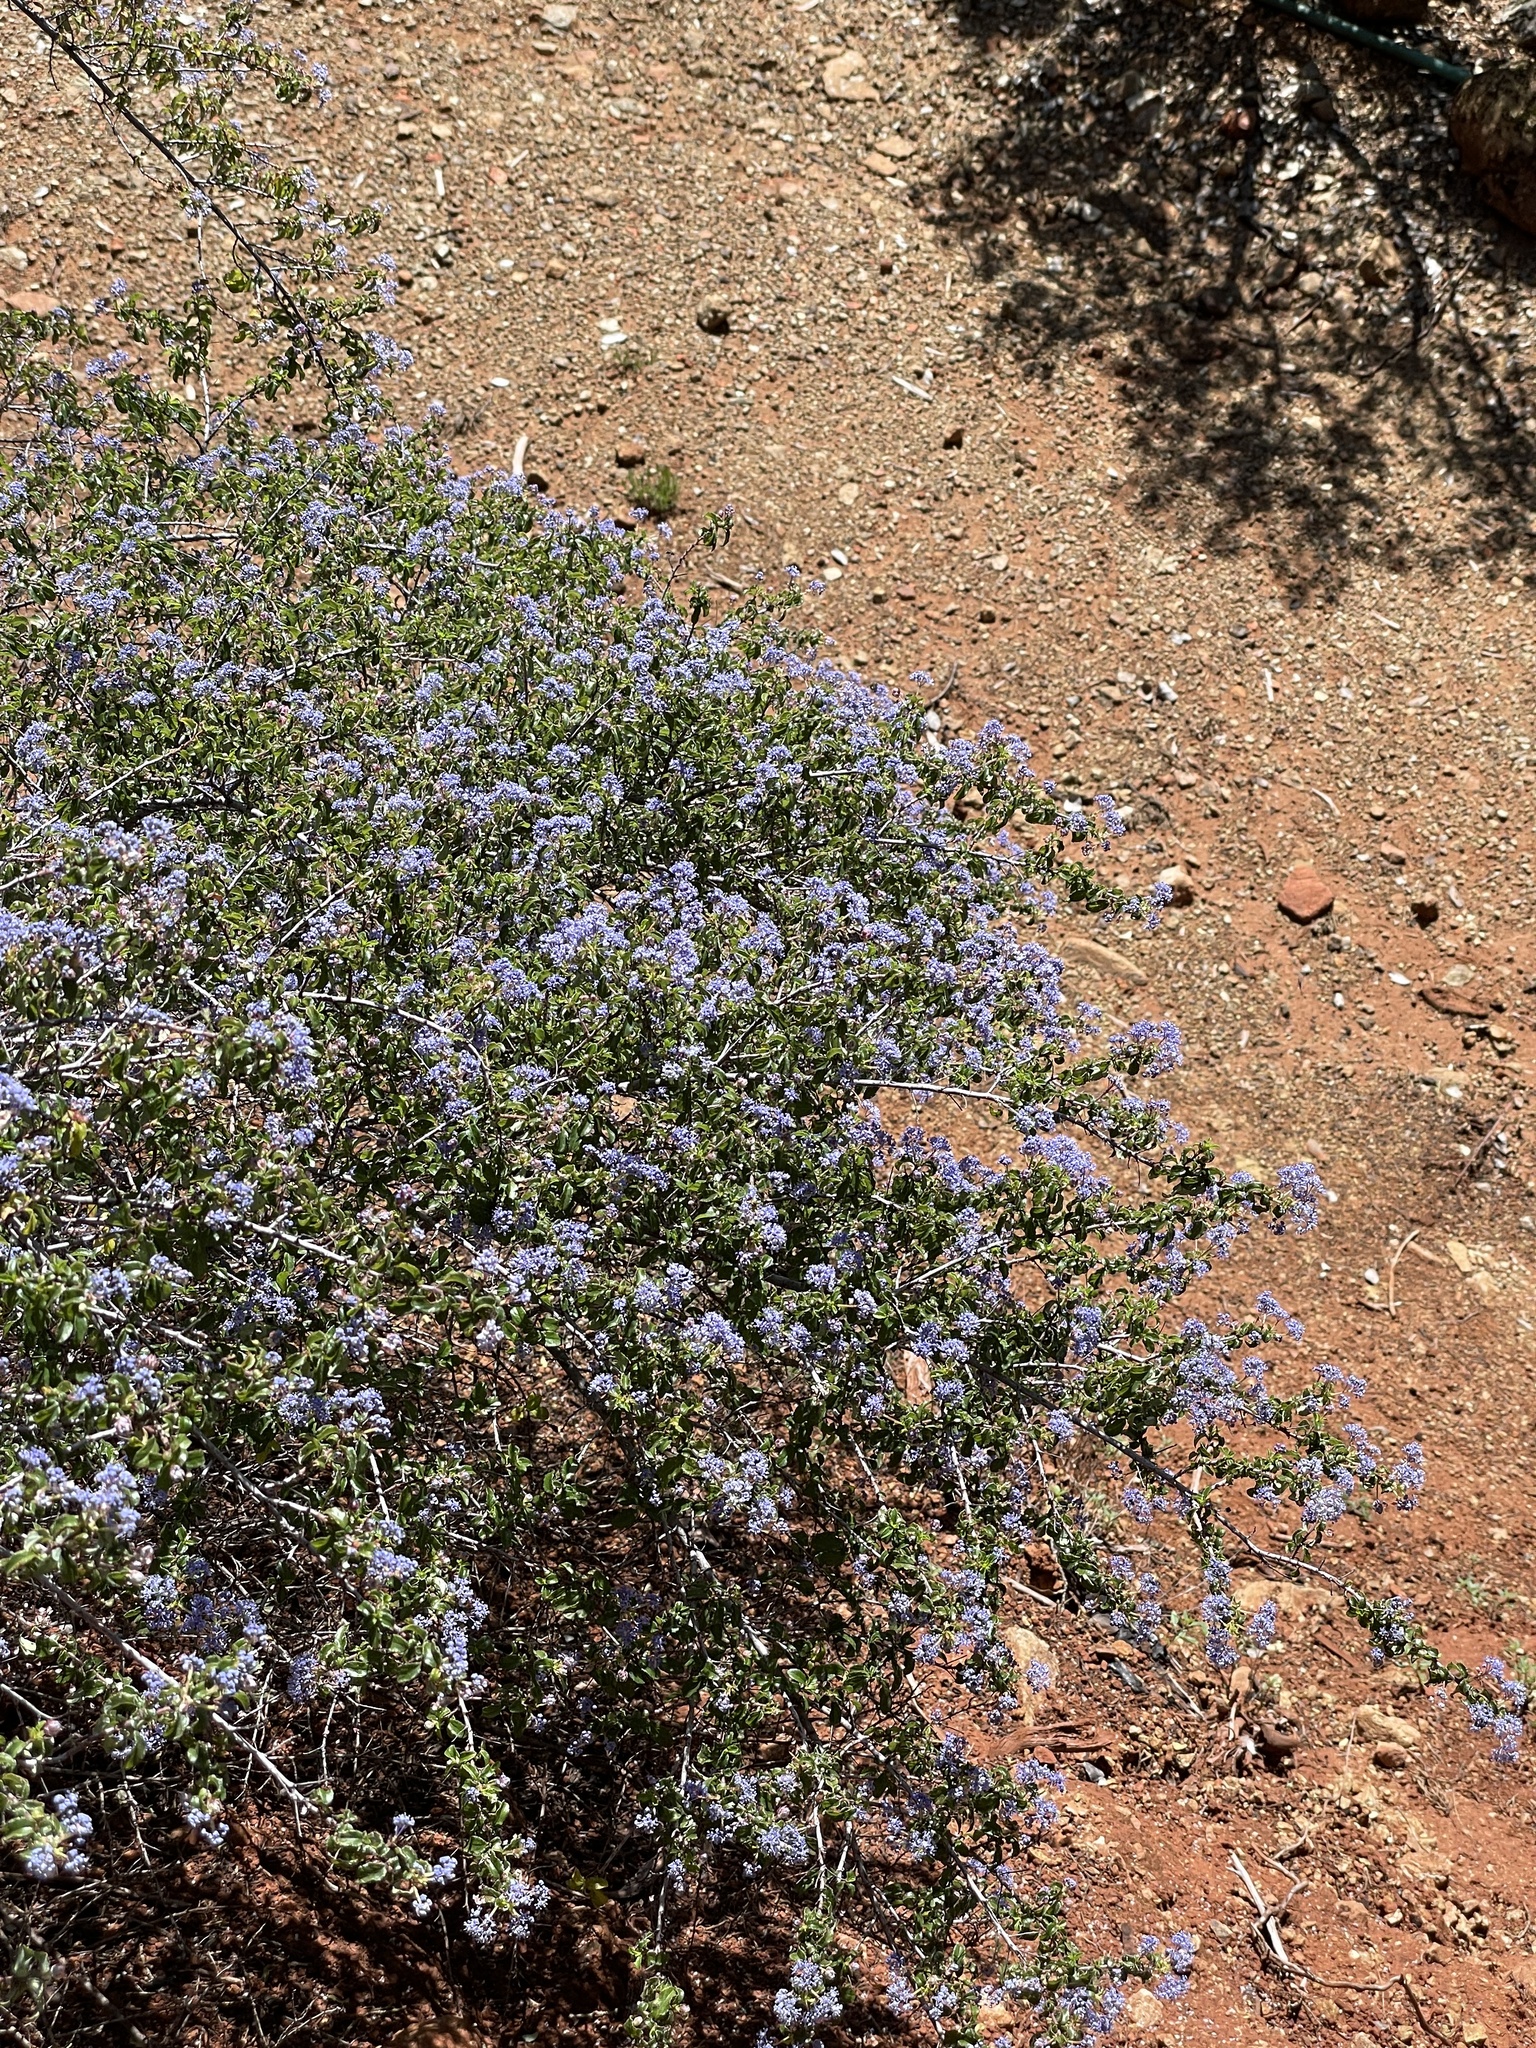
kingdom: Plantae
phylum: Tracheophyta
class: Magnoliopsida
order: Rosales
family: Rhamnaceae
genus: Ceanothus
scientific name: Ceanothus foliosus
